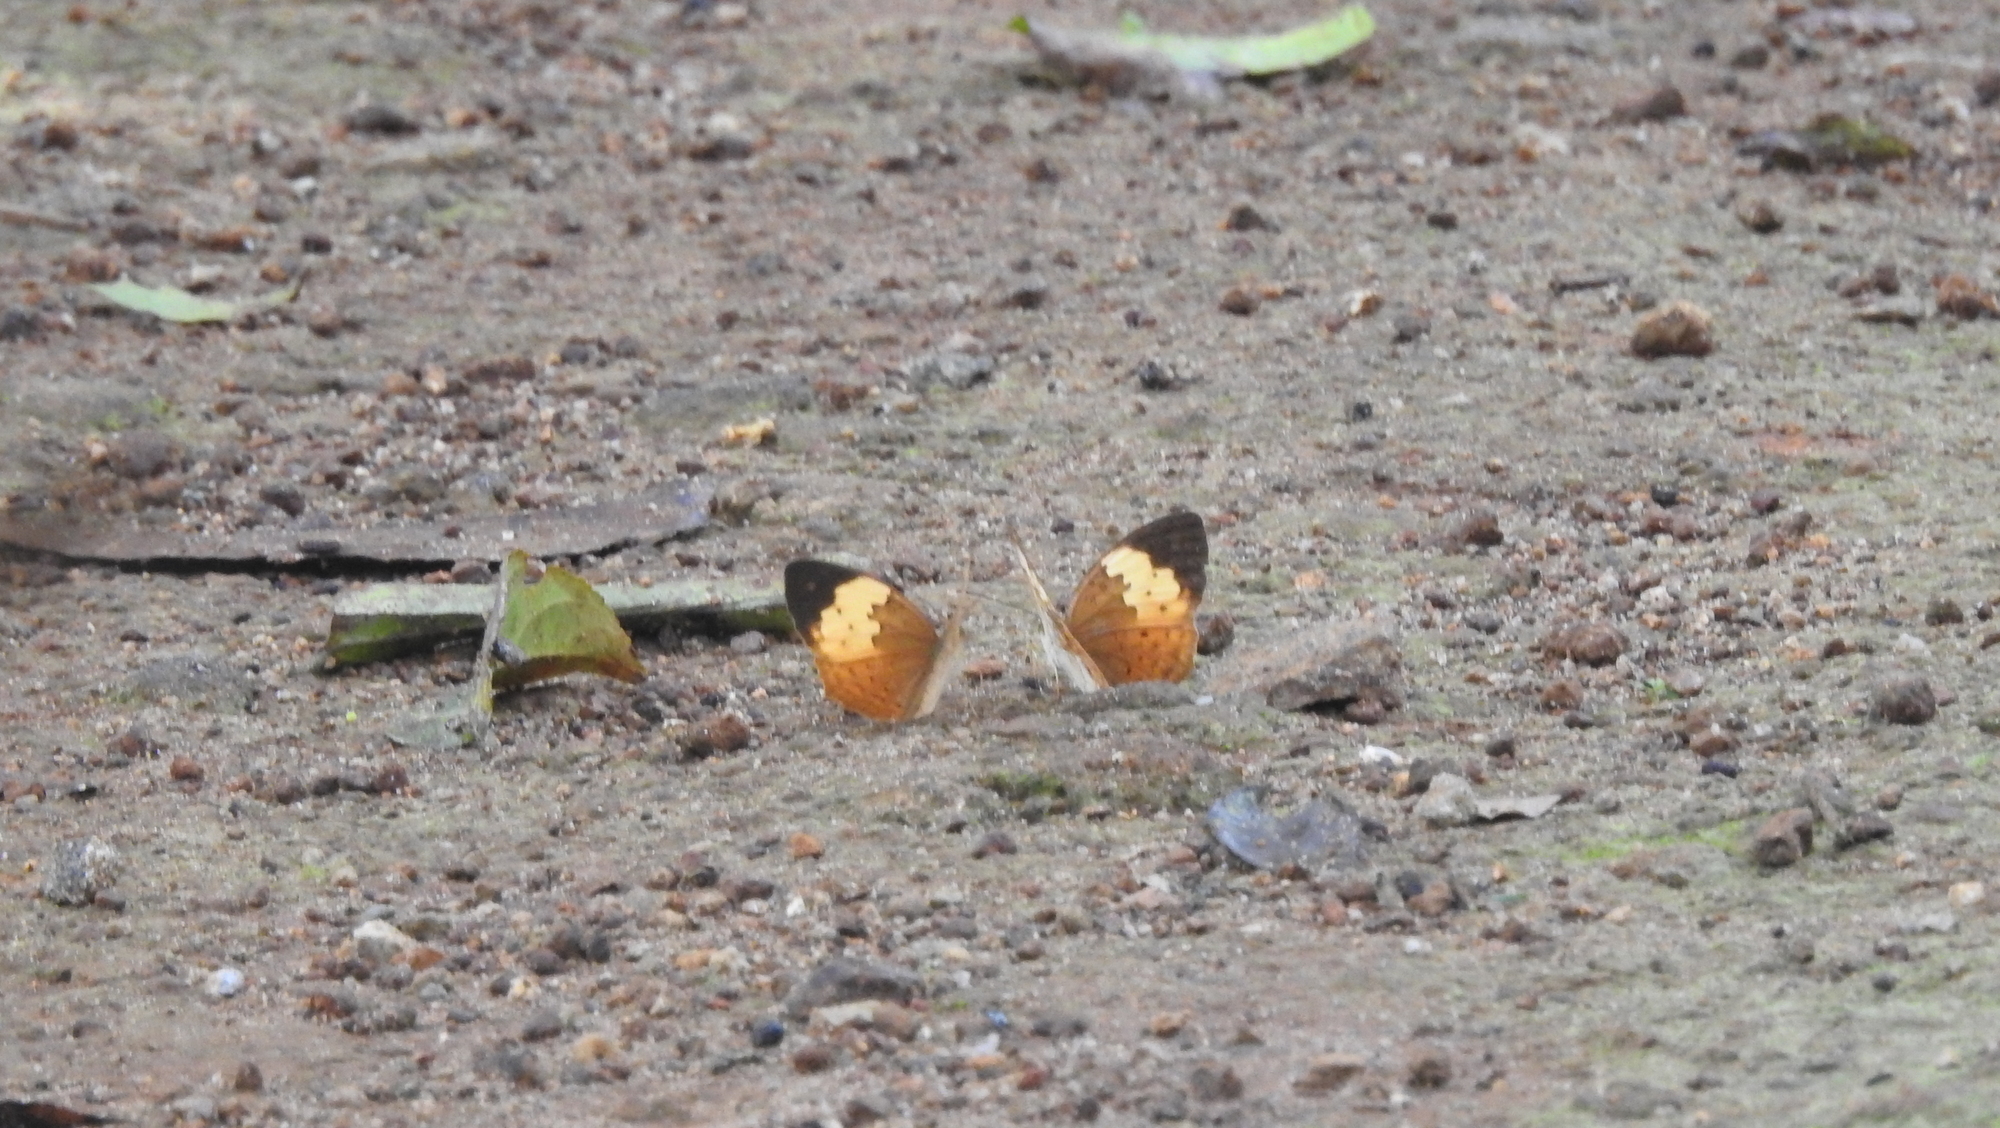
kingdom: Animalia
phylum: Arthropoda
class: Insecta
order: Lepidoptera
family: Nymphalidae
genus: Cupha
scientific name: Cupha erymanthis
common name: Rustic
